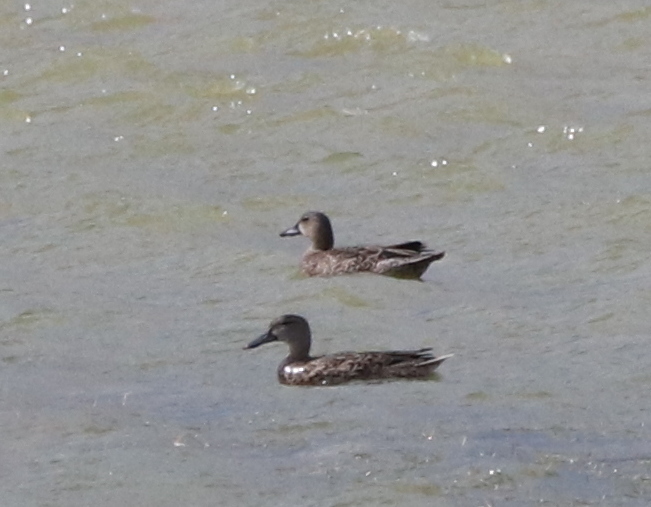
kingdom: Animalia
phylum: Chordata
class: Aves
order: Anseriformes
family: Anatidae
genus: Spatula
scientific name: Spatula discors
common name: Blue-winged teal
